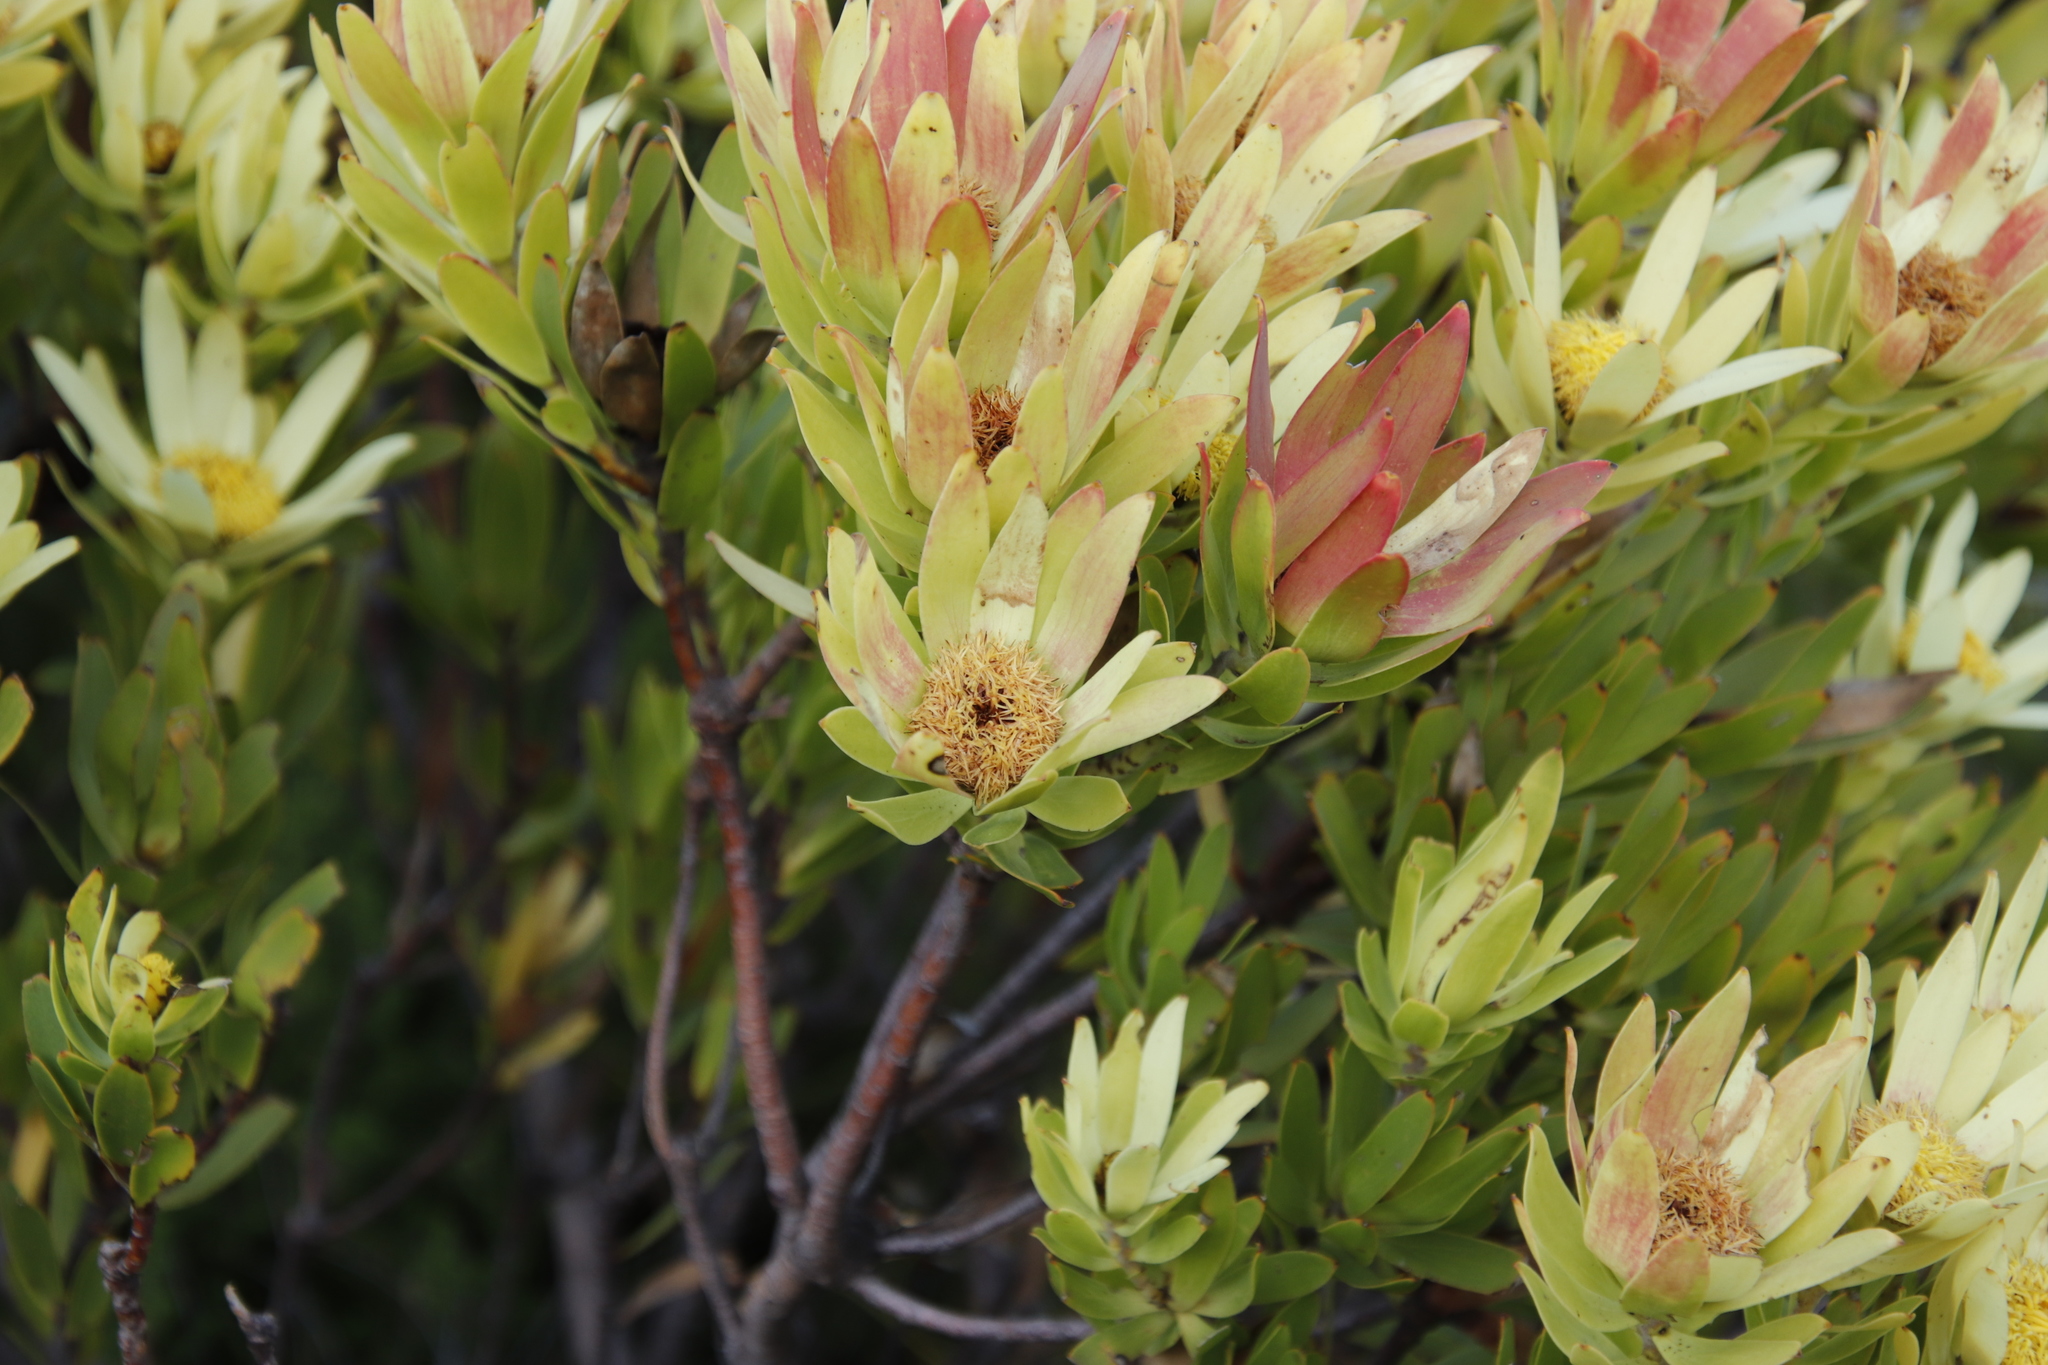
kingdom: Plantae
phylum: Tracheophyta
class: Magnoliopsida
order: Proteales
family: Proteaceae
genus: Leucadendron
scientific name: Leucadendron sessile
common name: Western sunbush
